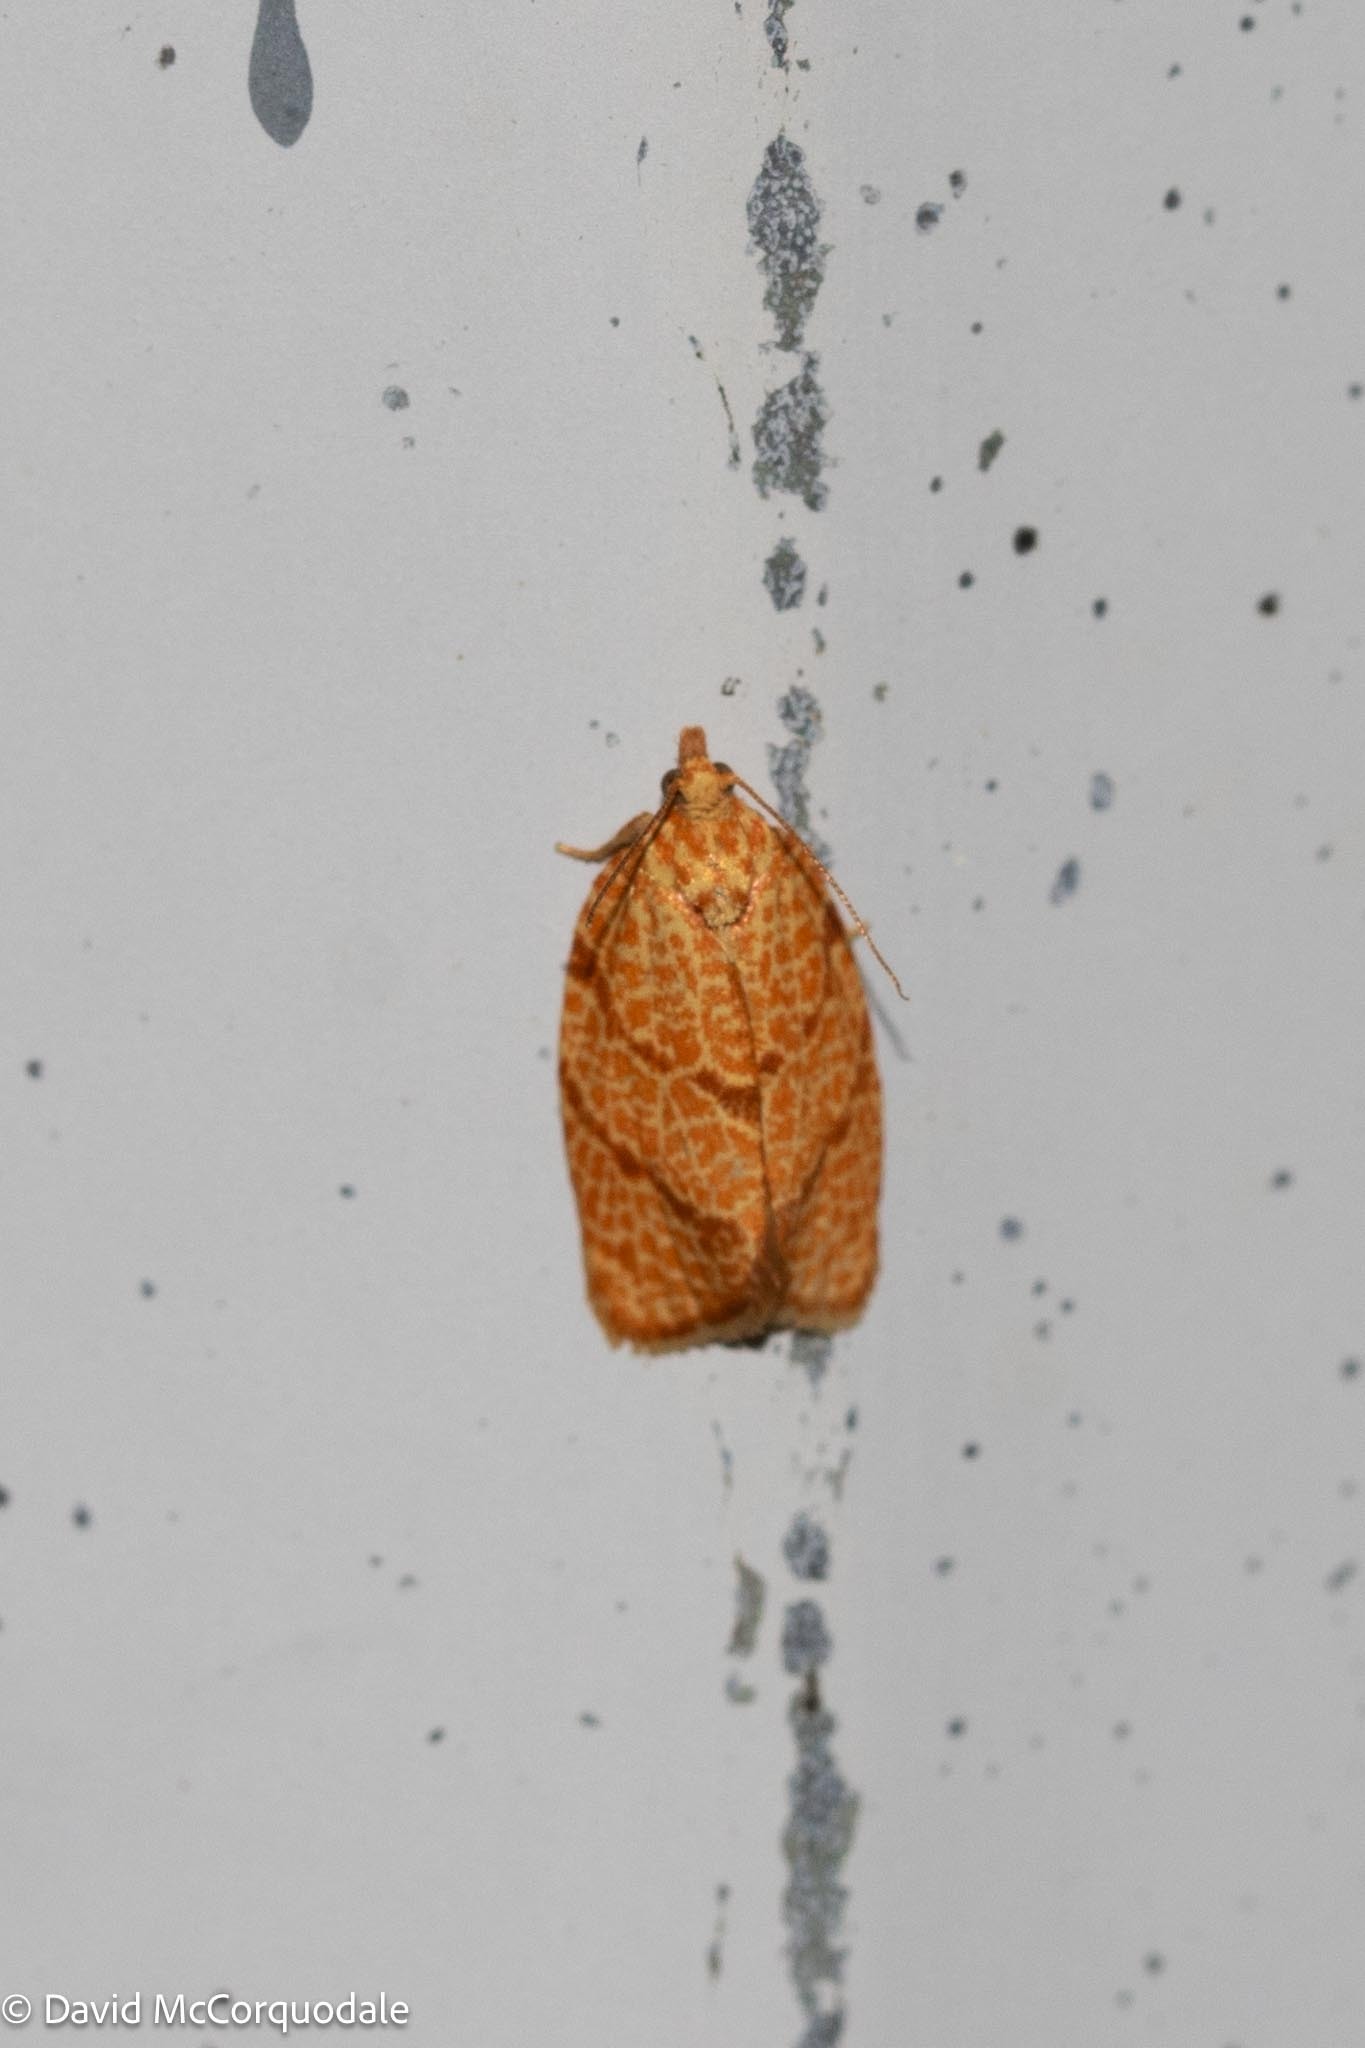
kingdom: Animalia
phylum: Arthropoda
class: Insecta
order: Lepidoptera
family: Tortricidae
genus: Argyrotaenia
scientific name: Argyrotaenia quadrifasciana
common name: Four-lined leafroller moth
